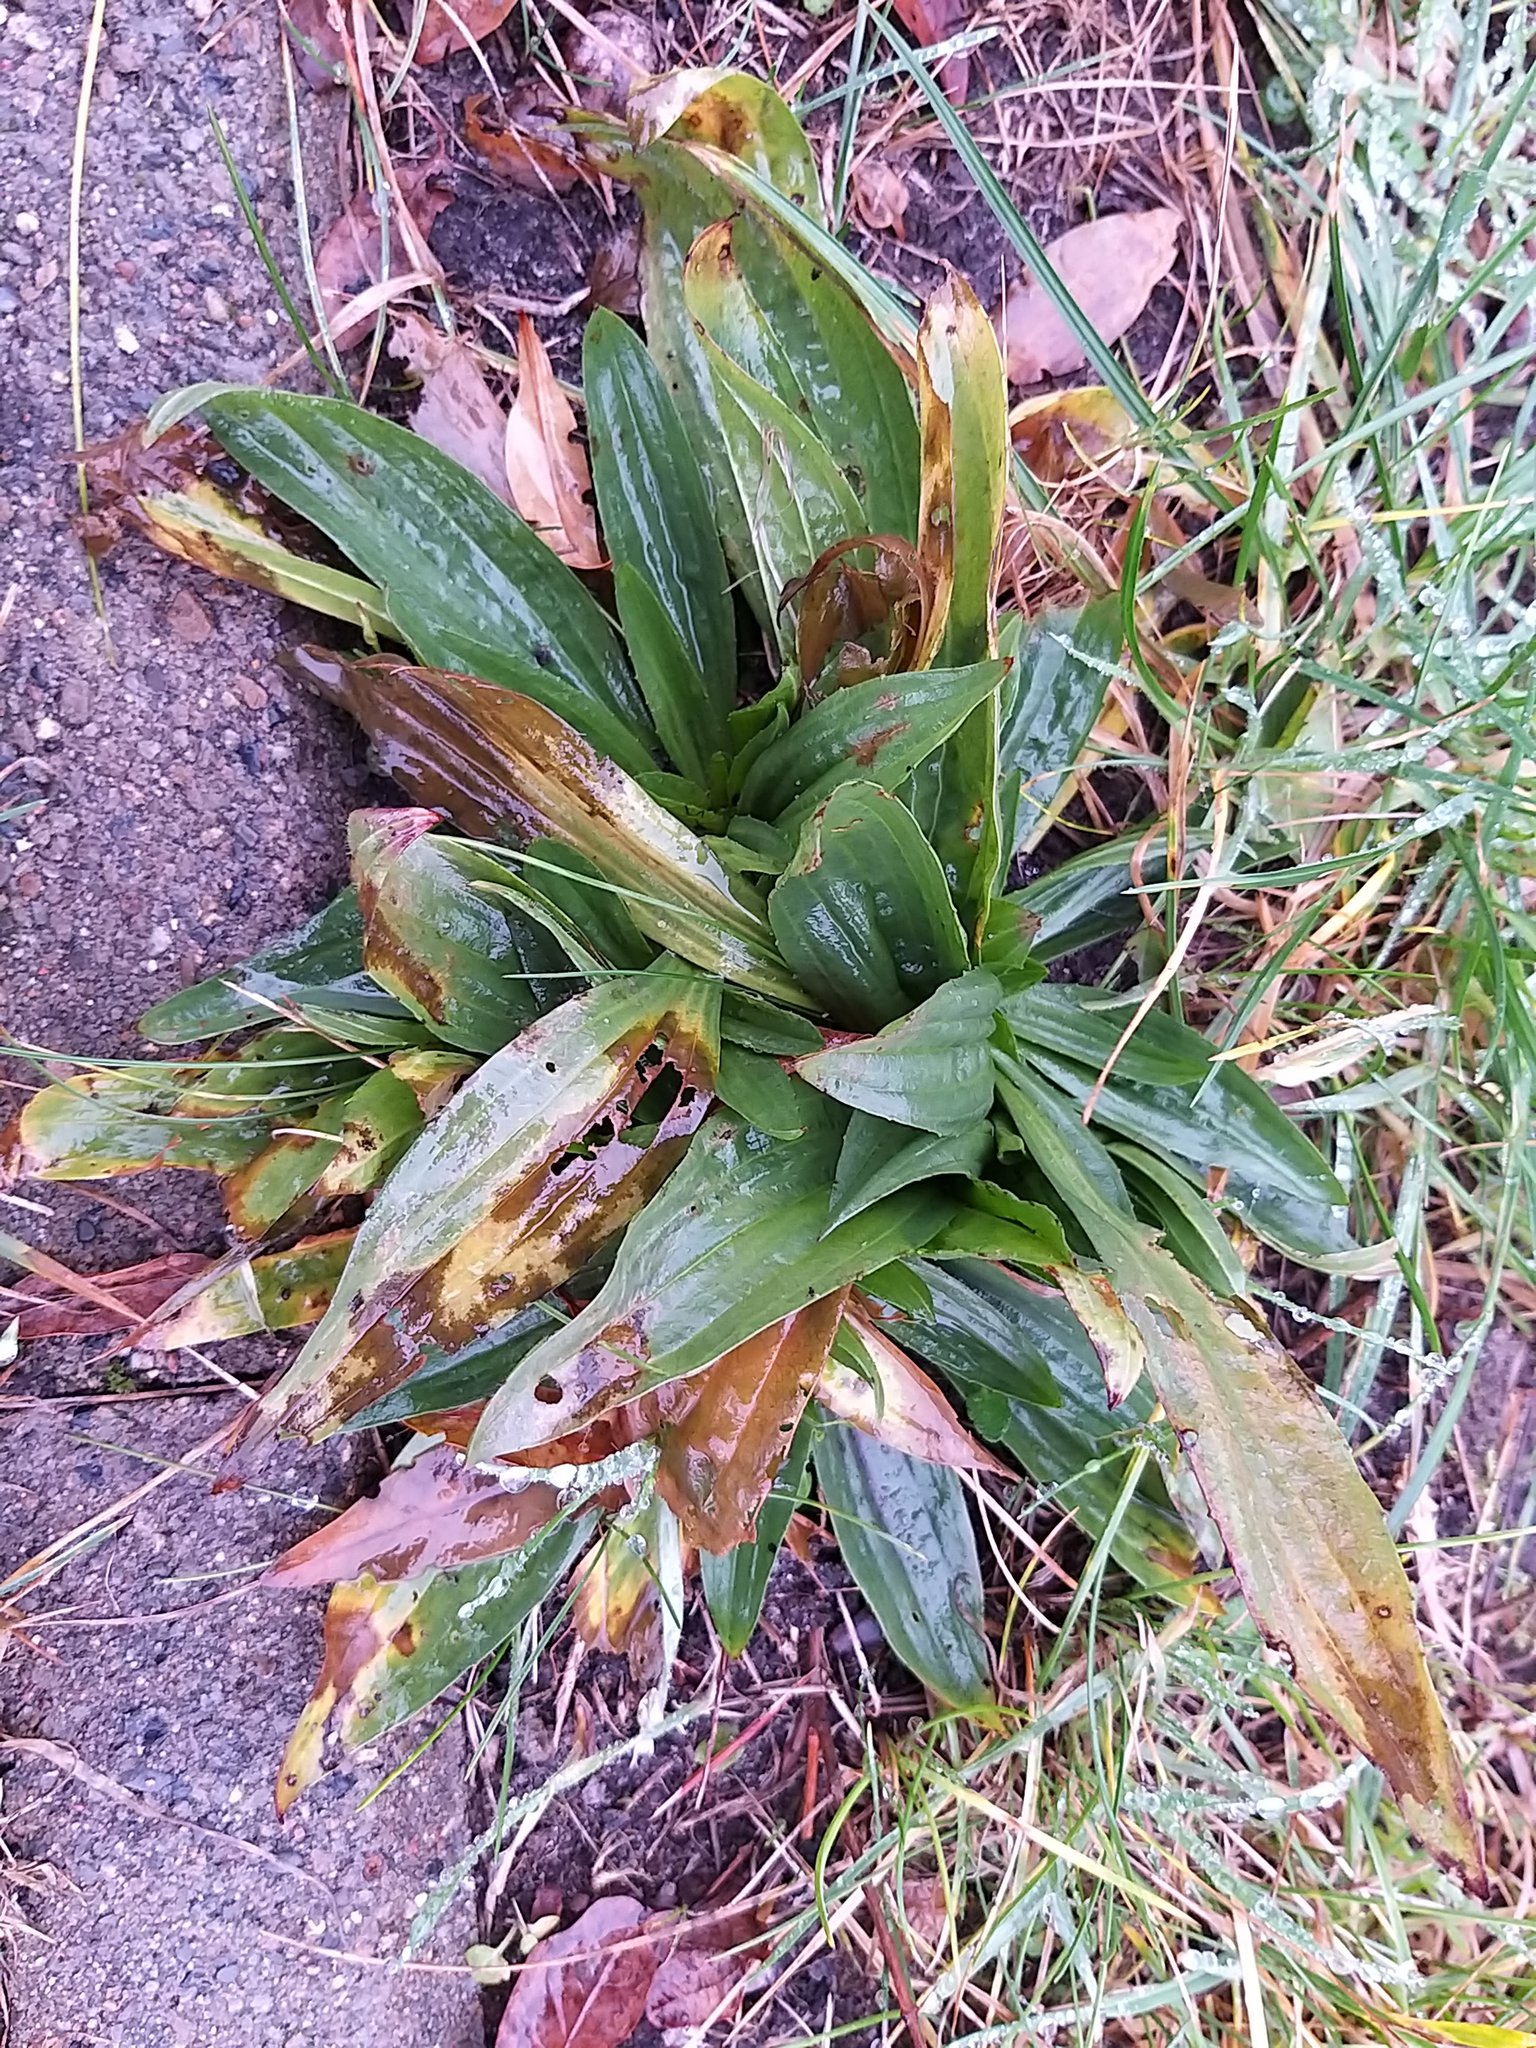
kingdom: Plantae
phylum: Tracheophyta
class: Magnoliopsida
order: Lamiales
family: Plantaginaceae
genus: Plantago
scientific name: Plantago lanceolata
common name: Ribwort plantain
